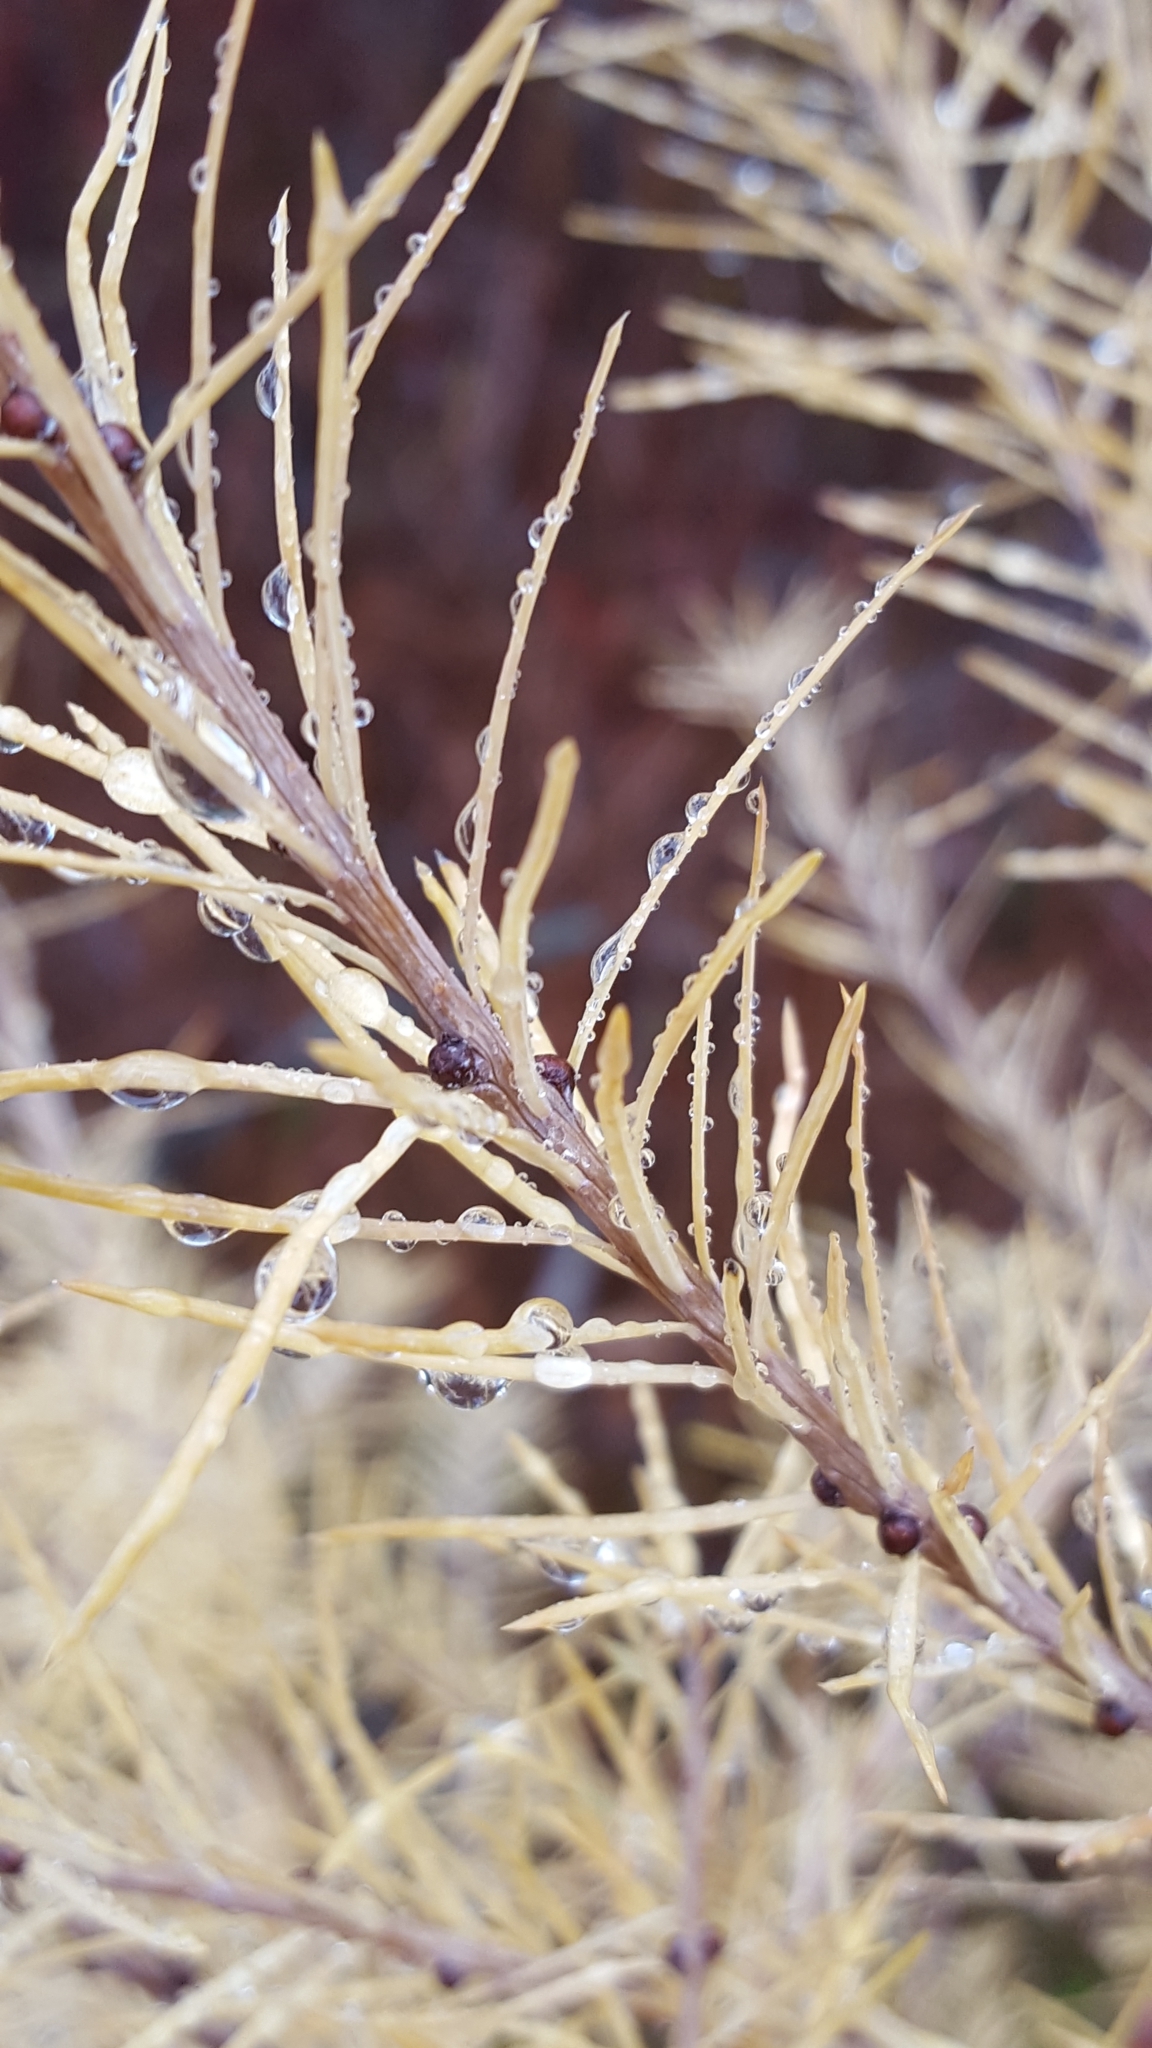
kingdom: Plantae
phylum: Tracheophyta
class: Pinopsida
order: Pinales
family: Pinaceae
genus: Larix
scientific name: Larix laricina
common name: American larch
